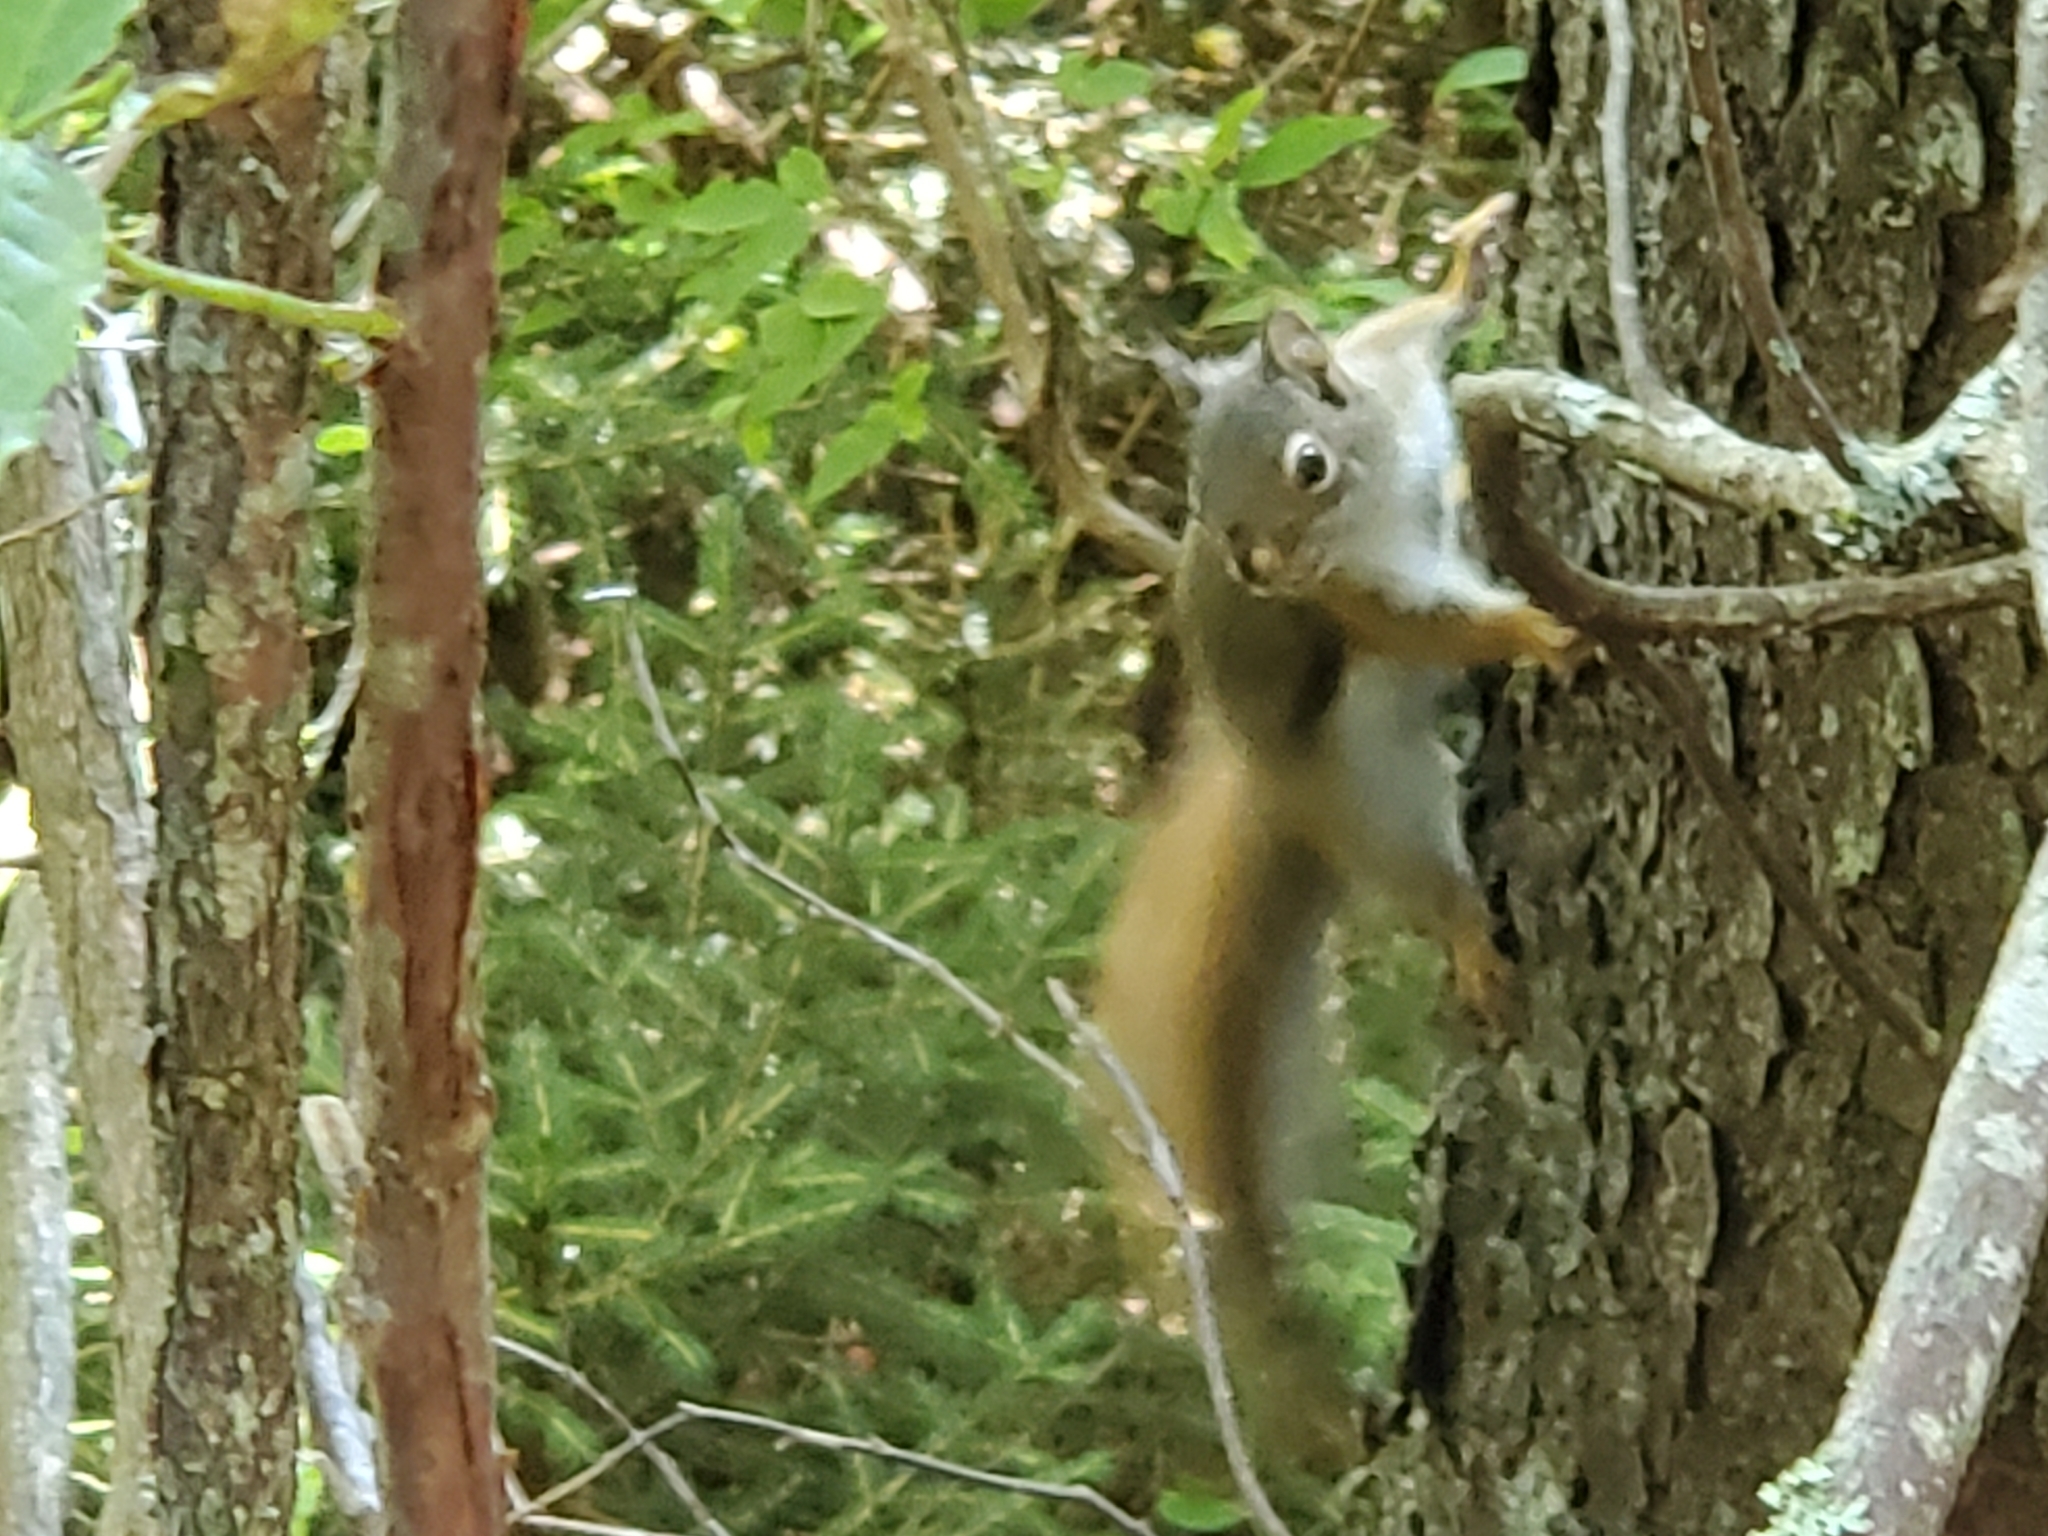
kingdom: Animalia
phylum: Chordata
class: Mammalia
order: Rodentia
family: Sciuridae
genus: Tamiasciurus
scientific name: Tamiasciurus hudsonicus
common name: Red squirrel
